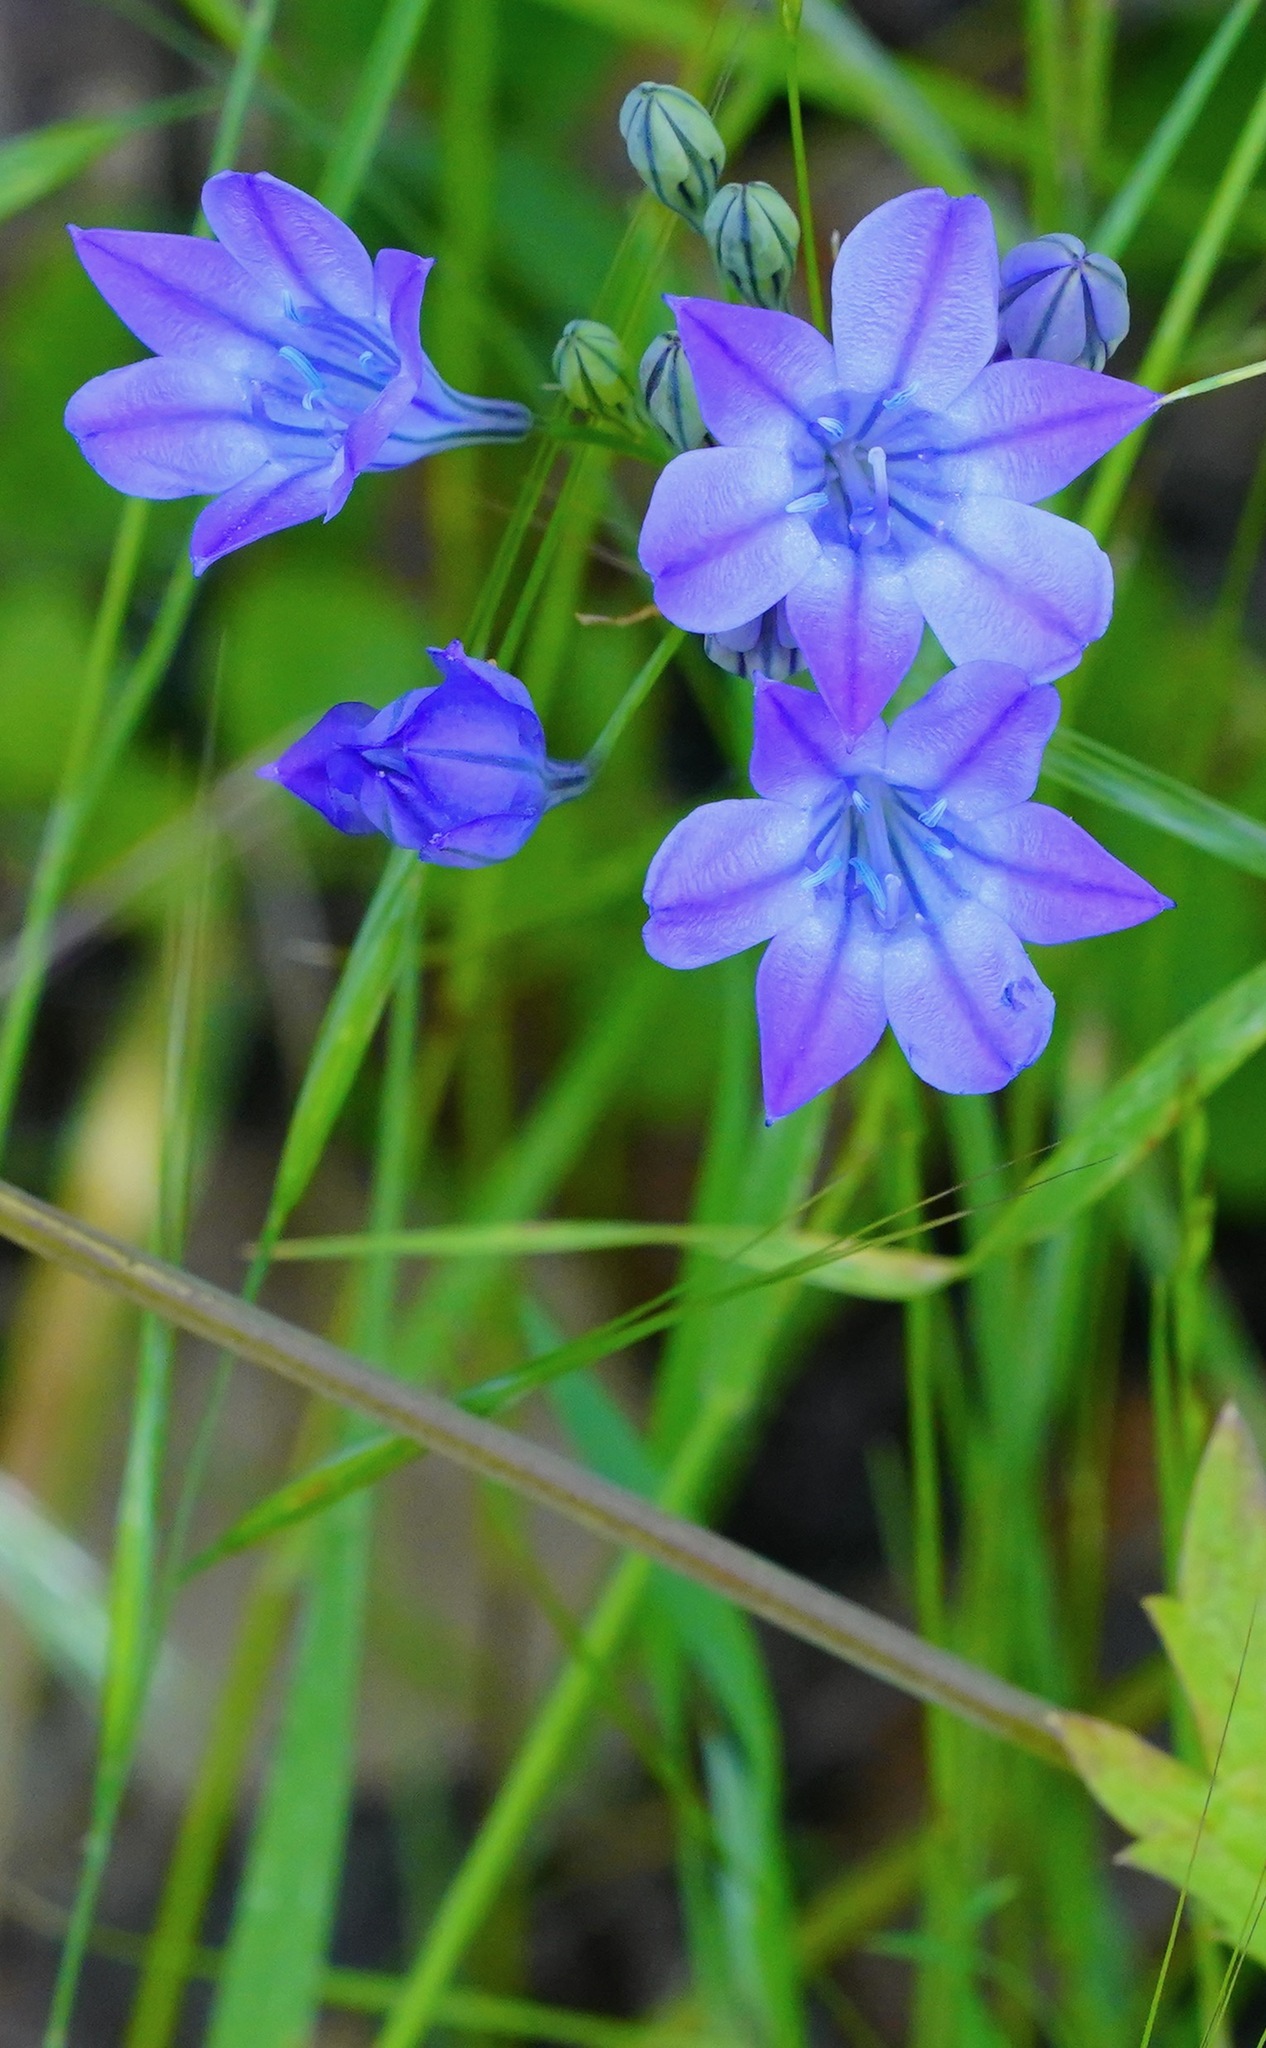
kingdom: Plantae
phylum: Tracheophyta
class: Liliopsida
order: Asparagales
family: Asparagaceae
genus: Triteleia
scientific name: Triteleia laxa
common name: Triplet-lily
